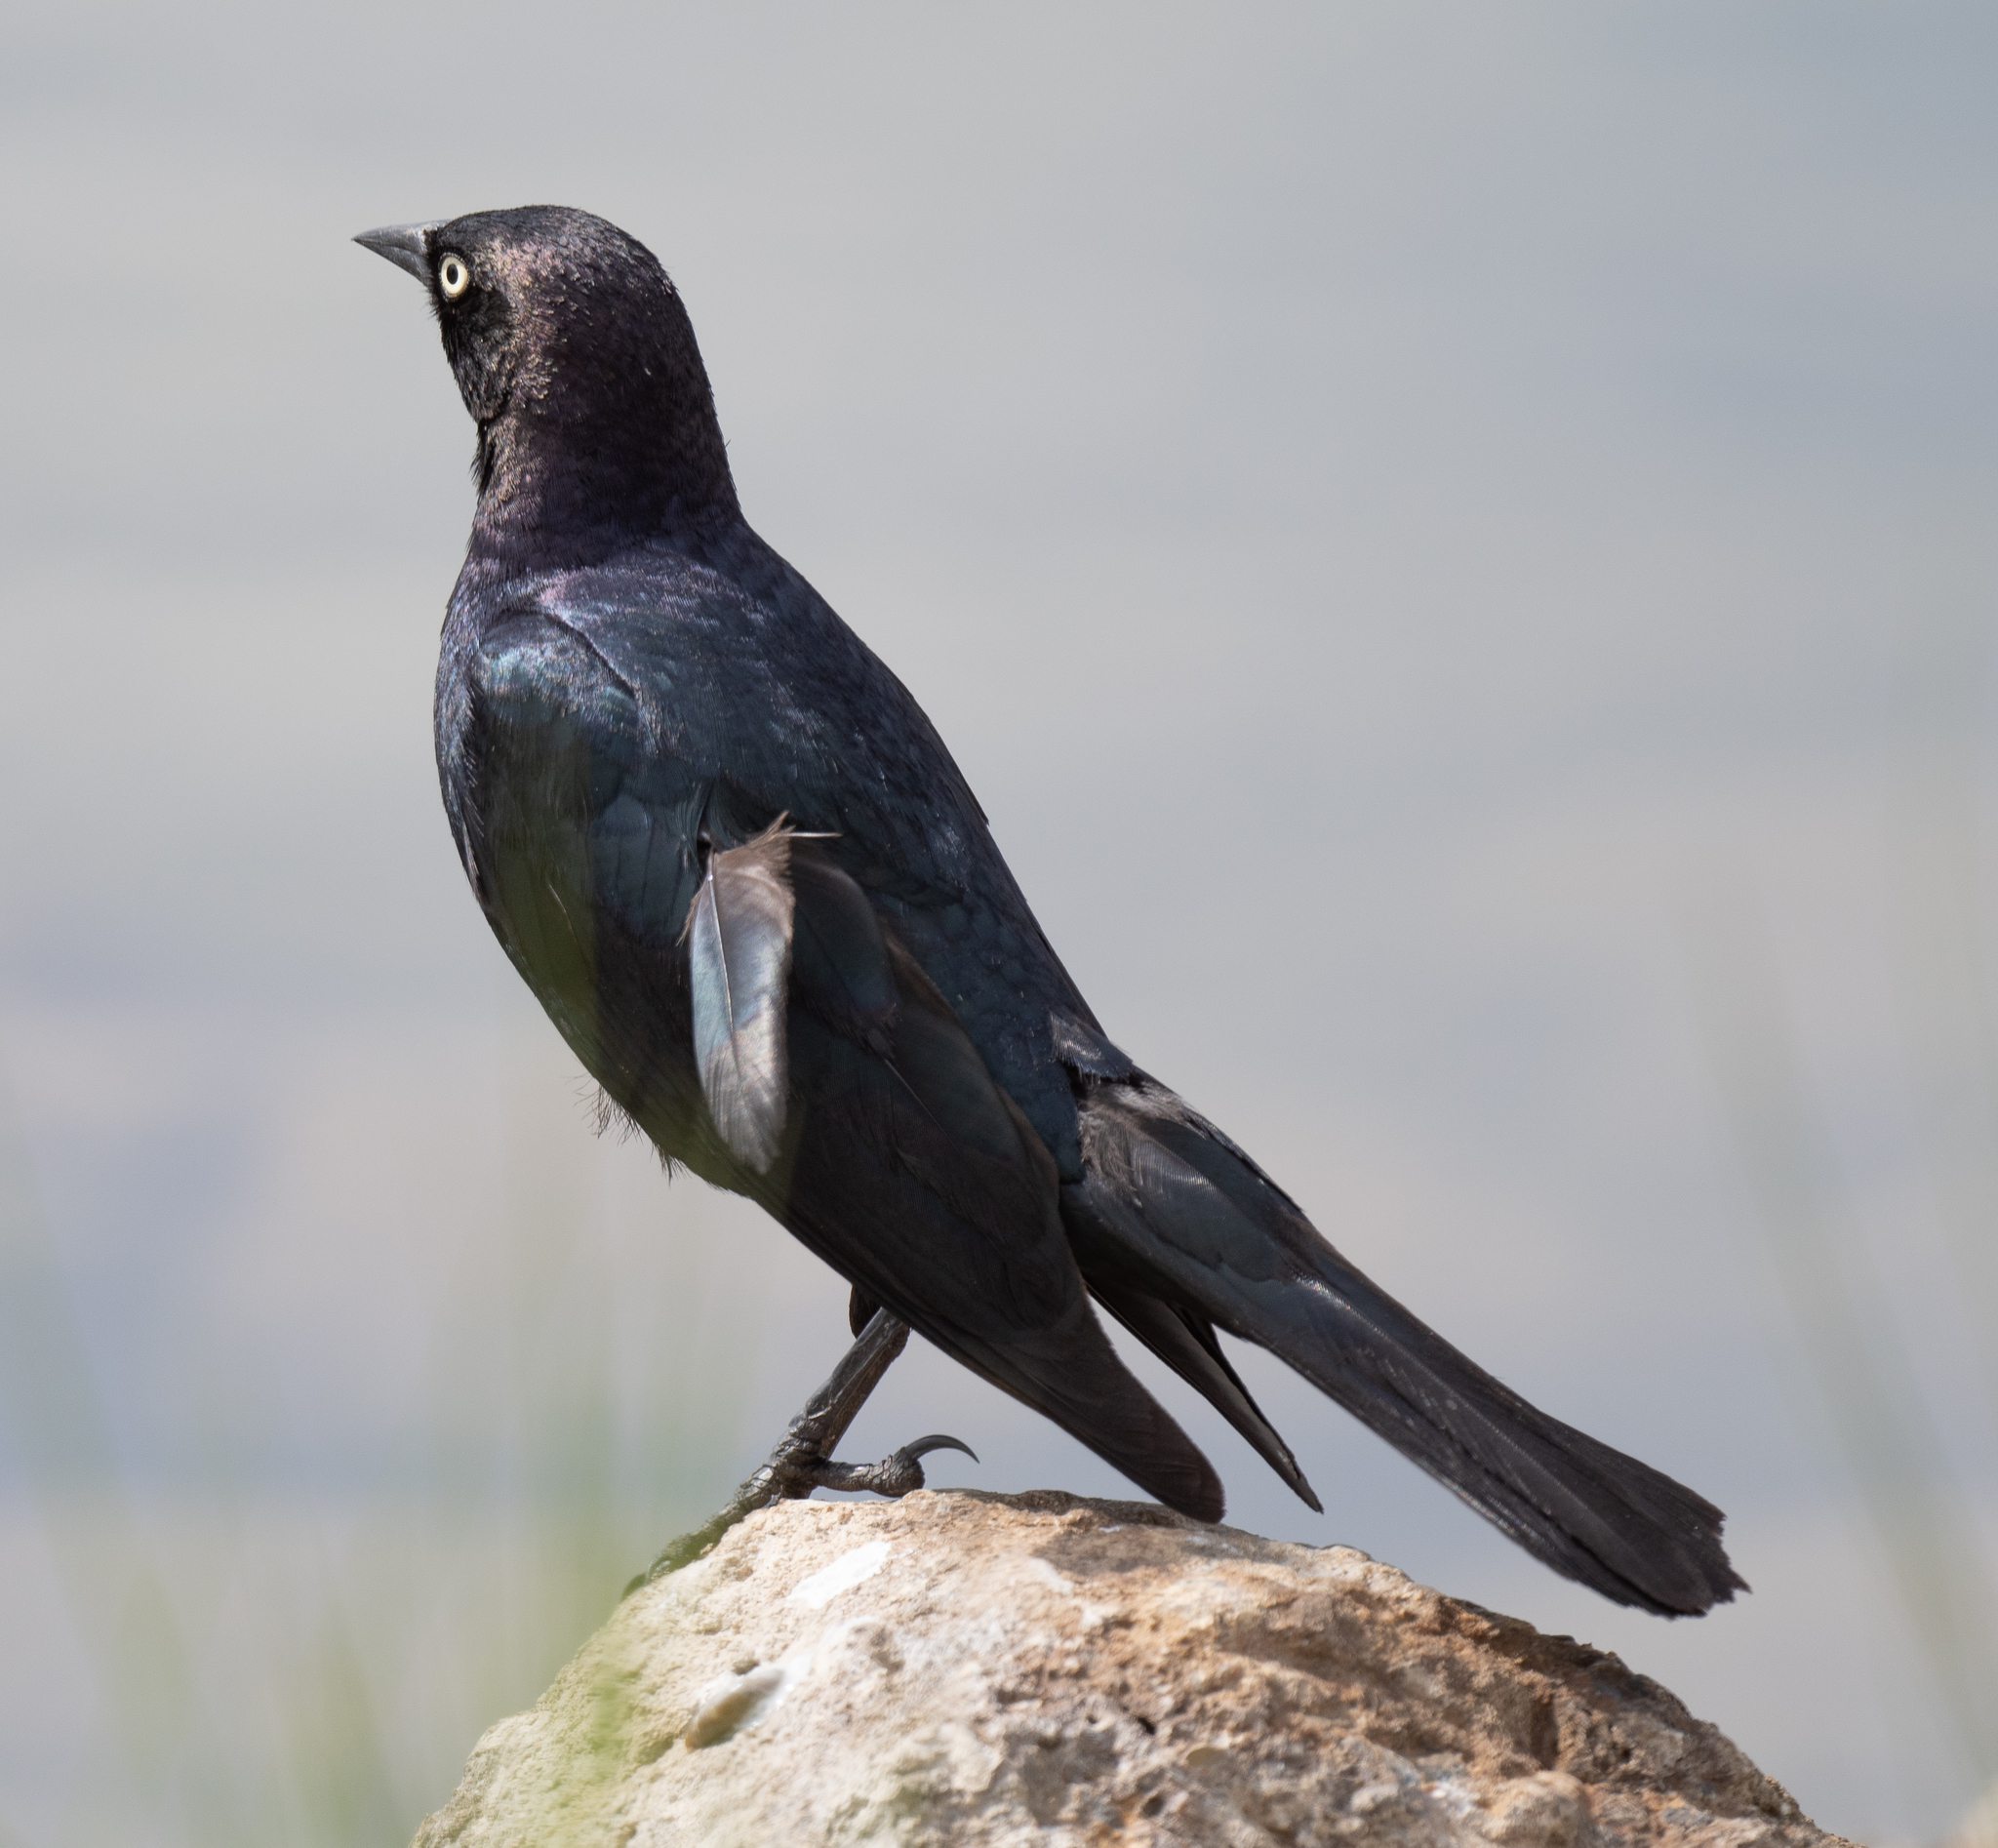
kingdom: Animalia
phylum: Chordata
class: Aves
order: Passeriformes
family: Icteridae
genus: Euphagus
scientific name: Euphagus cyanocephalus
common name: Brewer's blackbird
